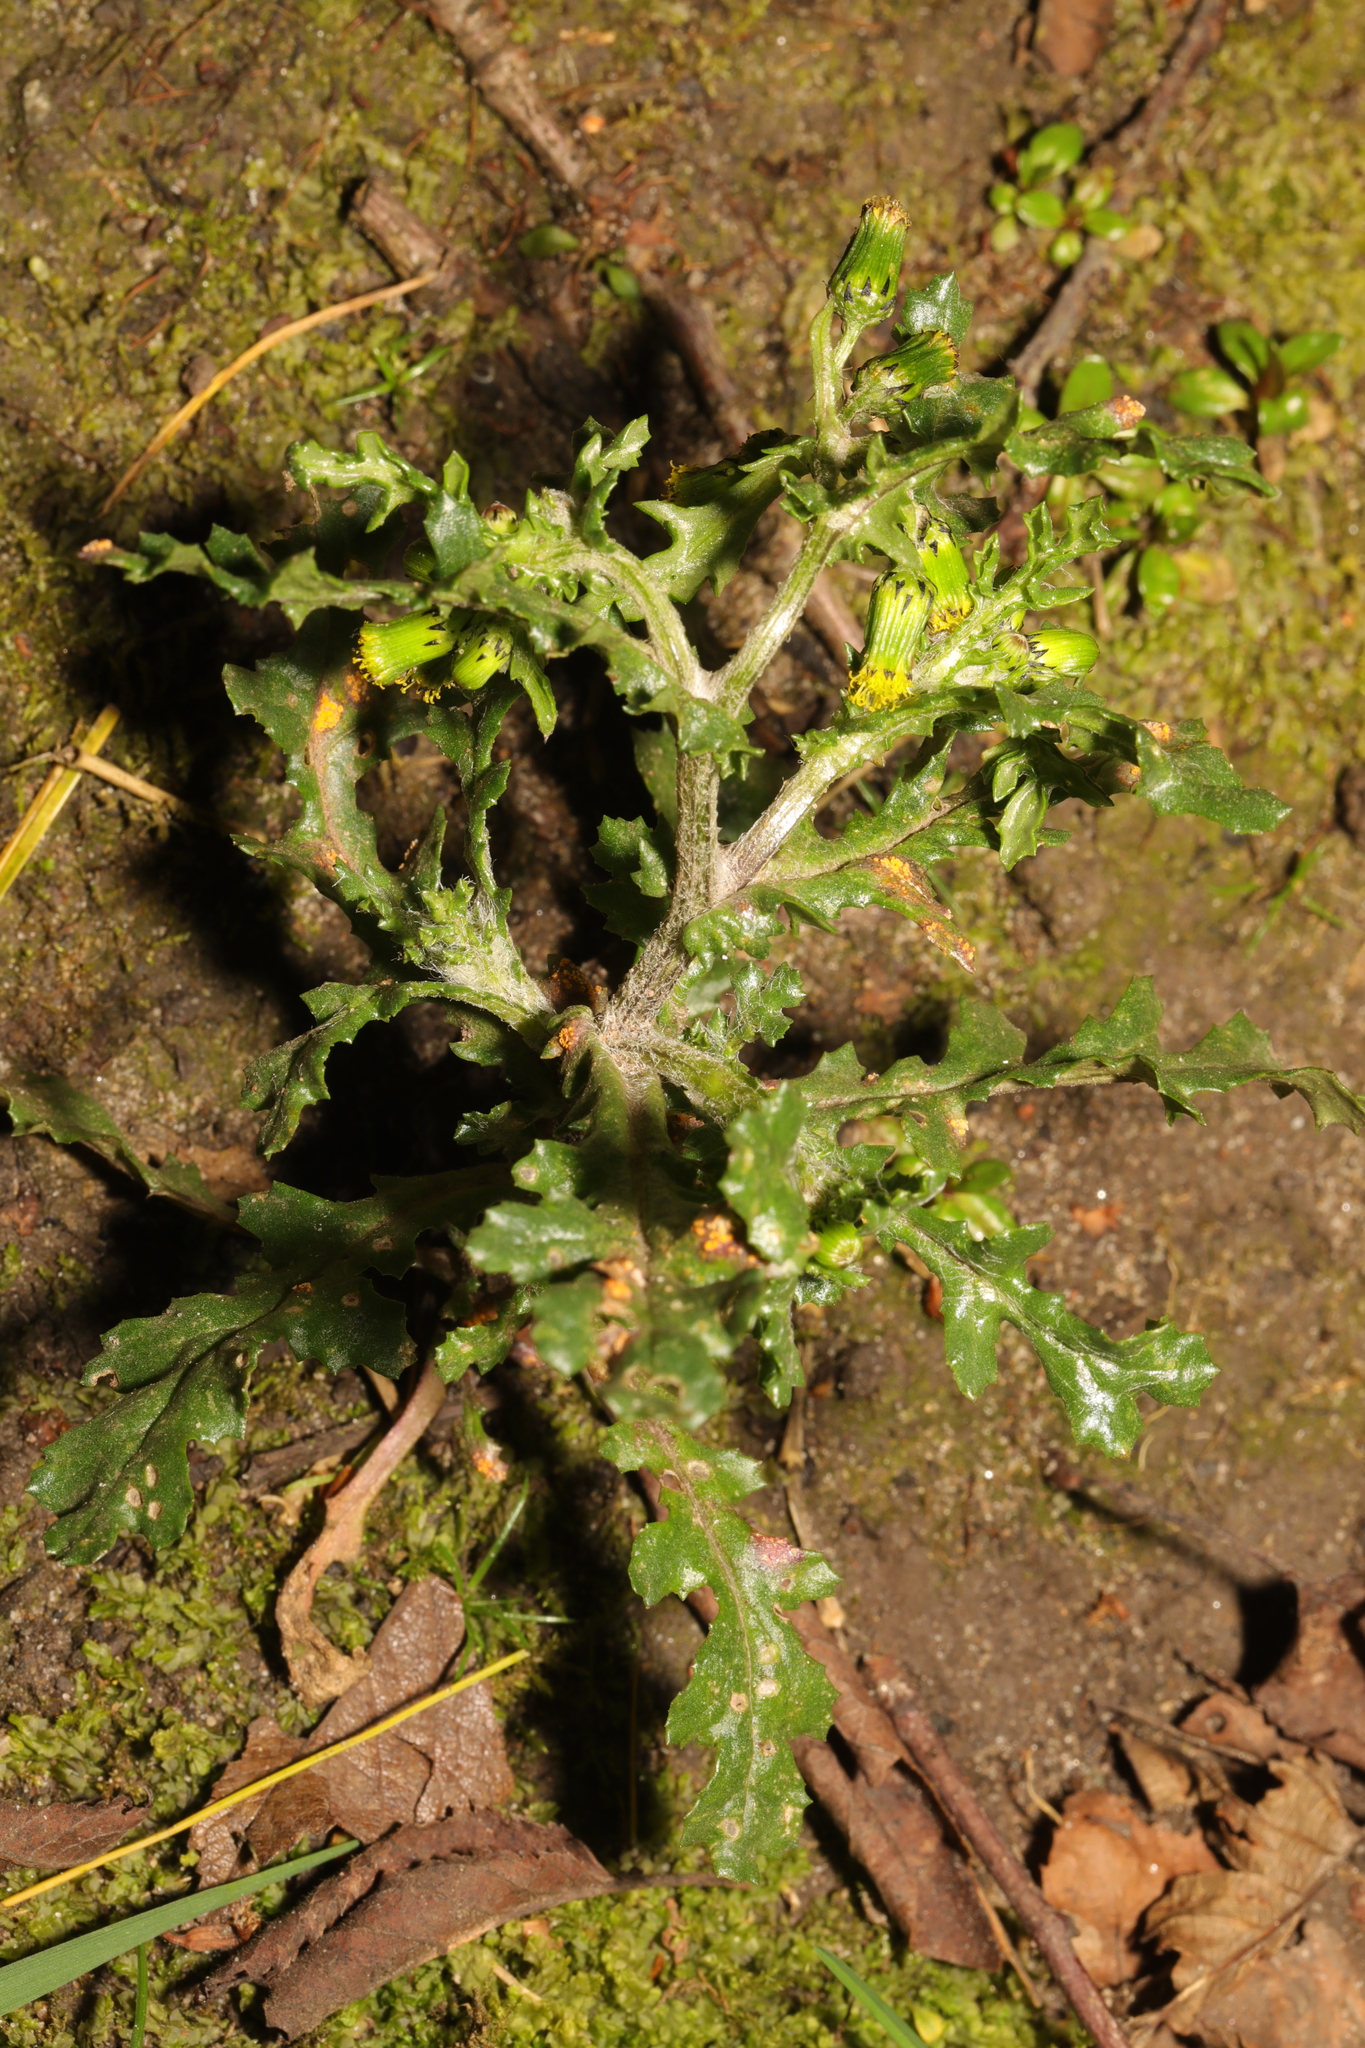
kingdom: Plantae
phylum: Tracheophyta
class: Magnoliopsida
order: Asterales
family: Asteraceae
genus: Senecio
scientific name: Senecio vulgaris
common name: Old-man-in-the-spring
